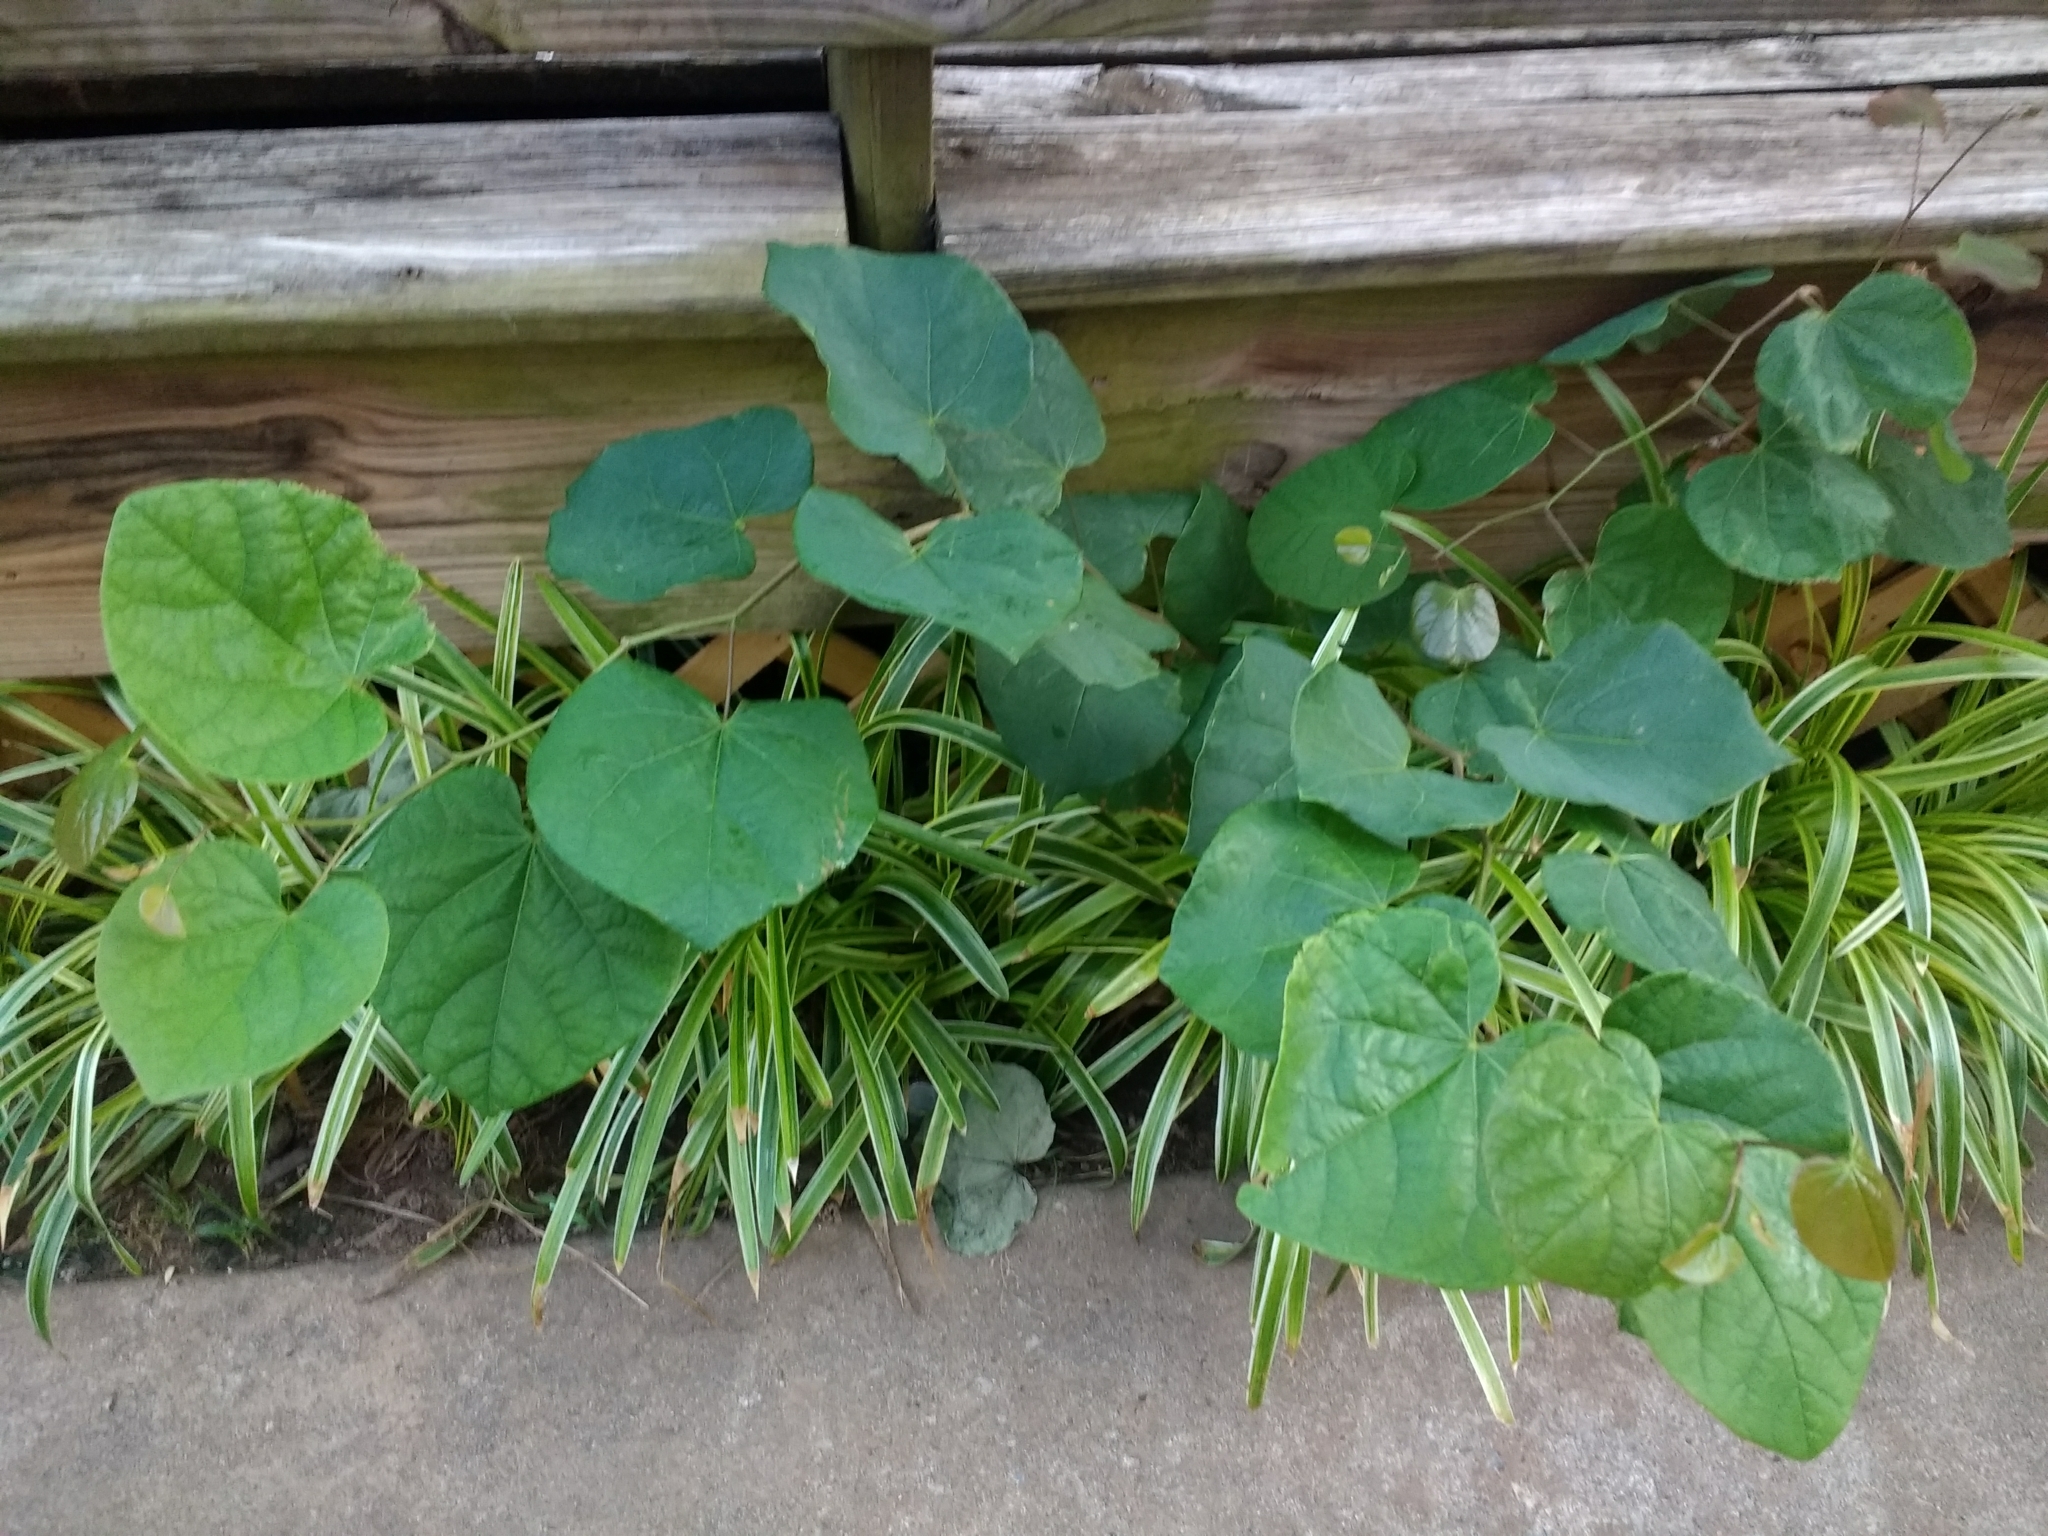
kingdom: Plantae
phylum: Tracheophyta
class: Magnoliopsida
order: Fabales
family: Fabaceae
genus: Cercis
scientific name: Cercis canadensis
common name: Eastern redbud
